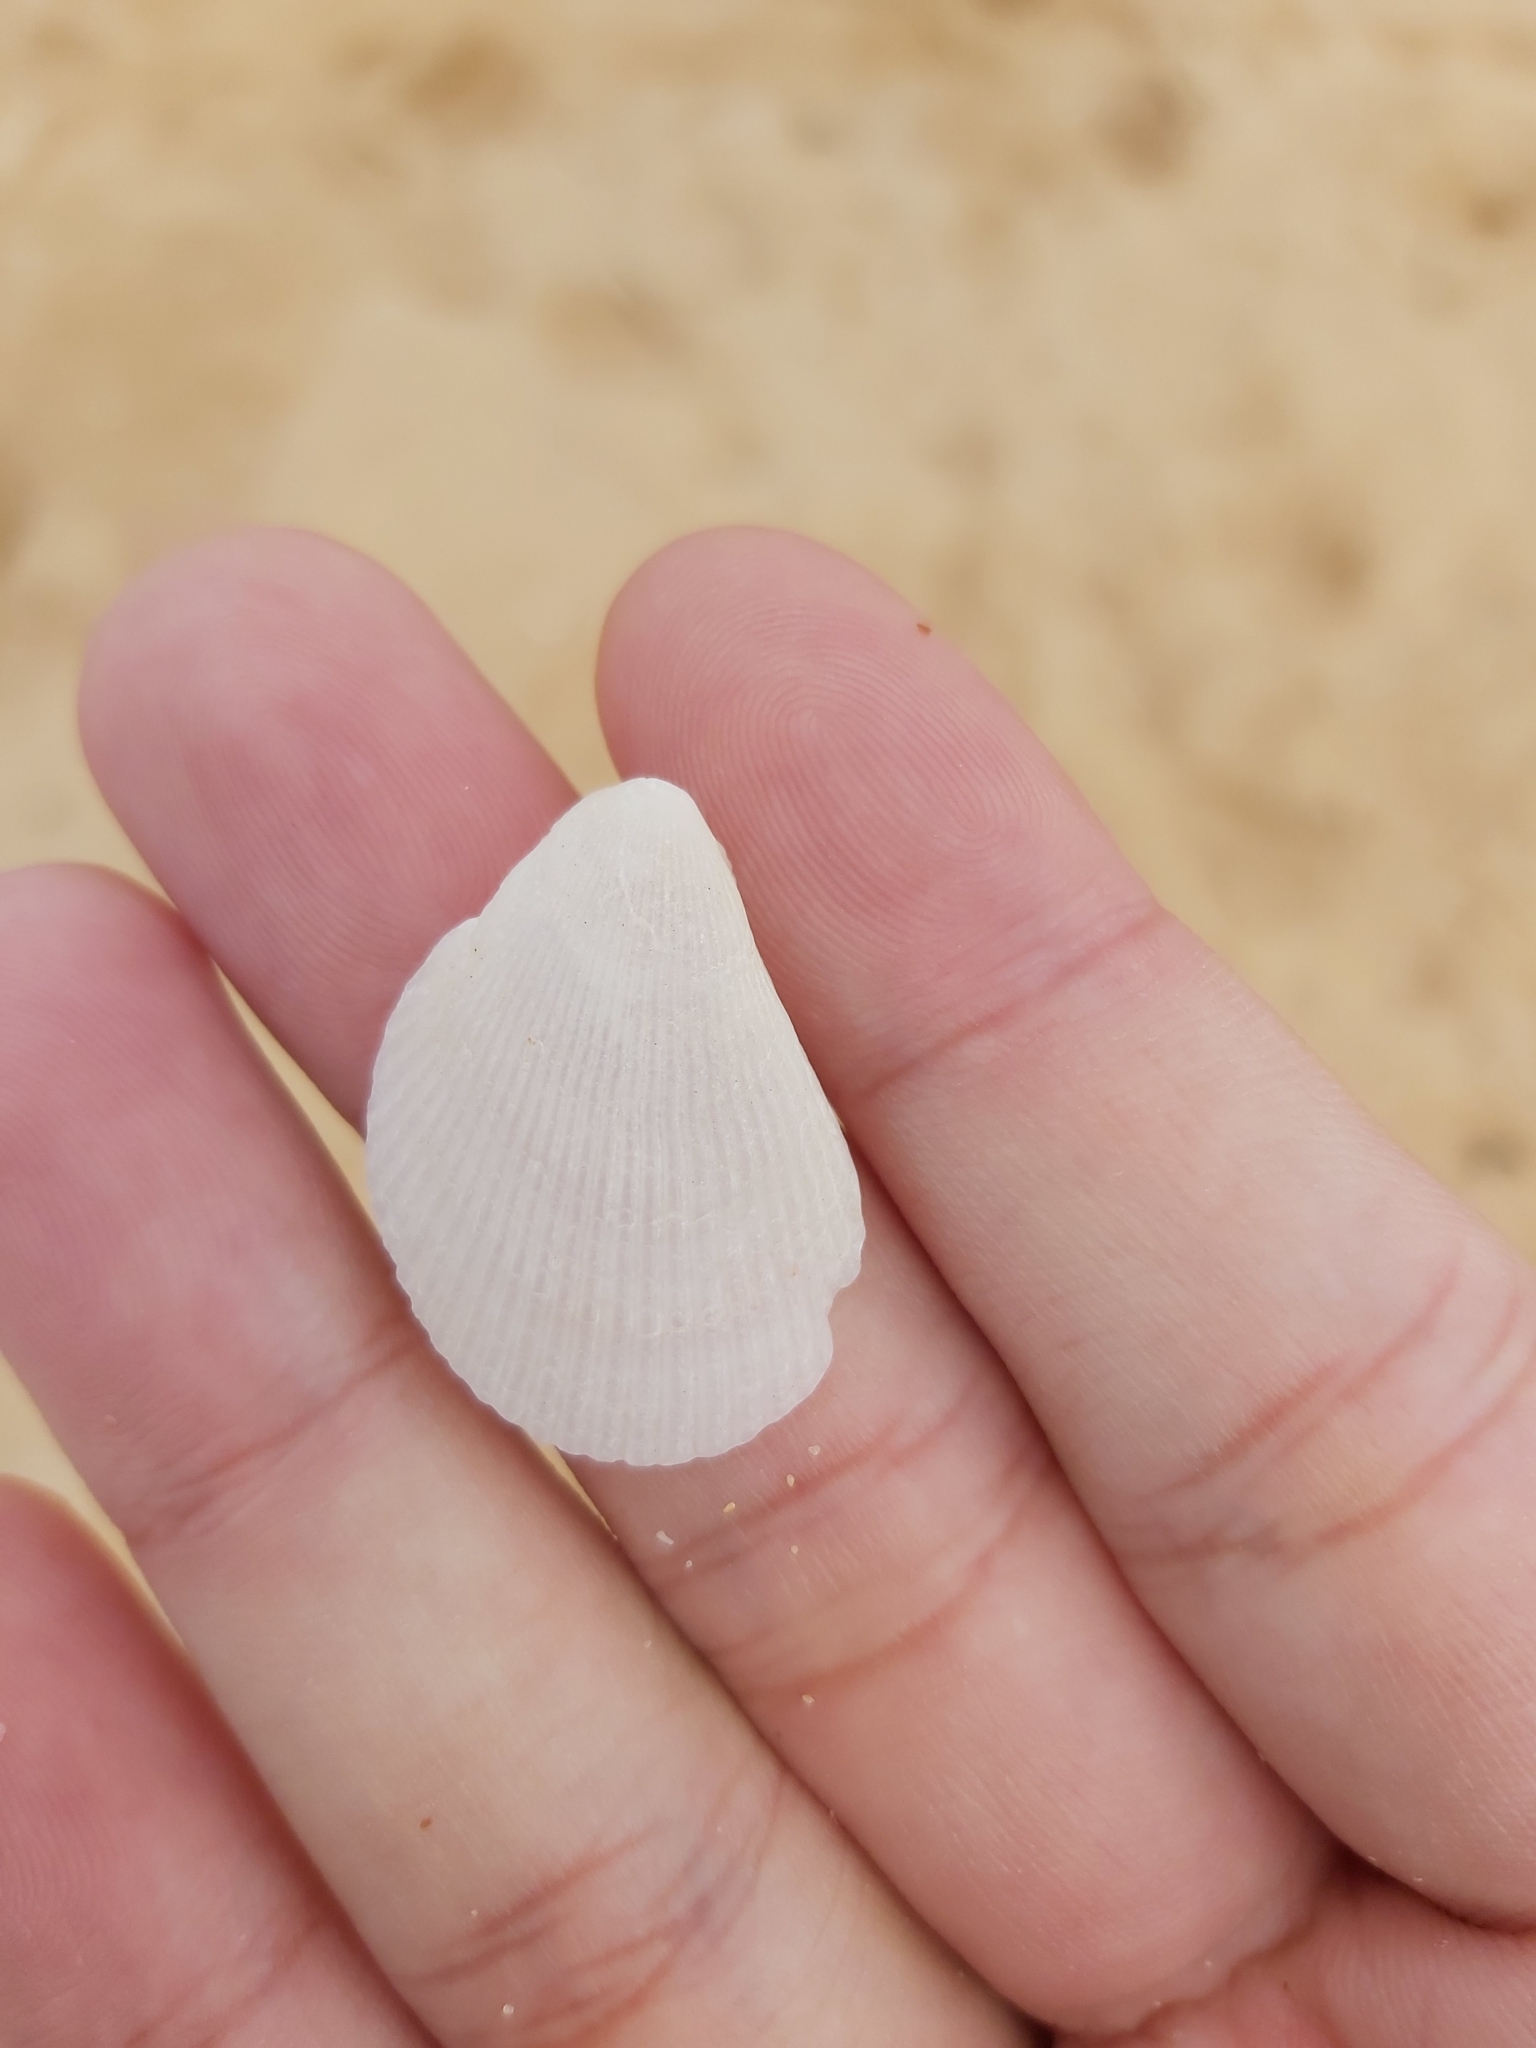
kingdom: Animalia
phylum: Mollusca
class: Bivalvia
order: Limida
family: Limidae
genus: Lima
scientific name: Lima nimbifer
